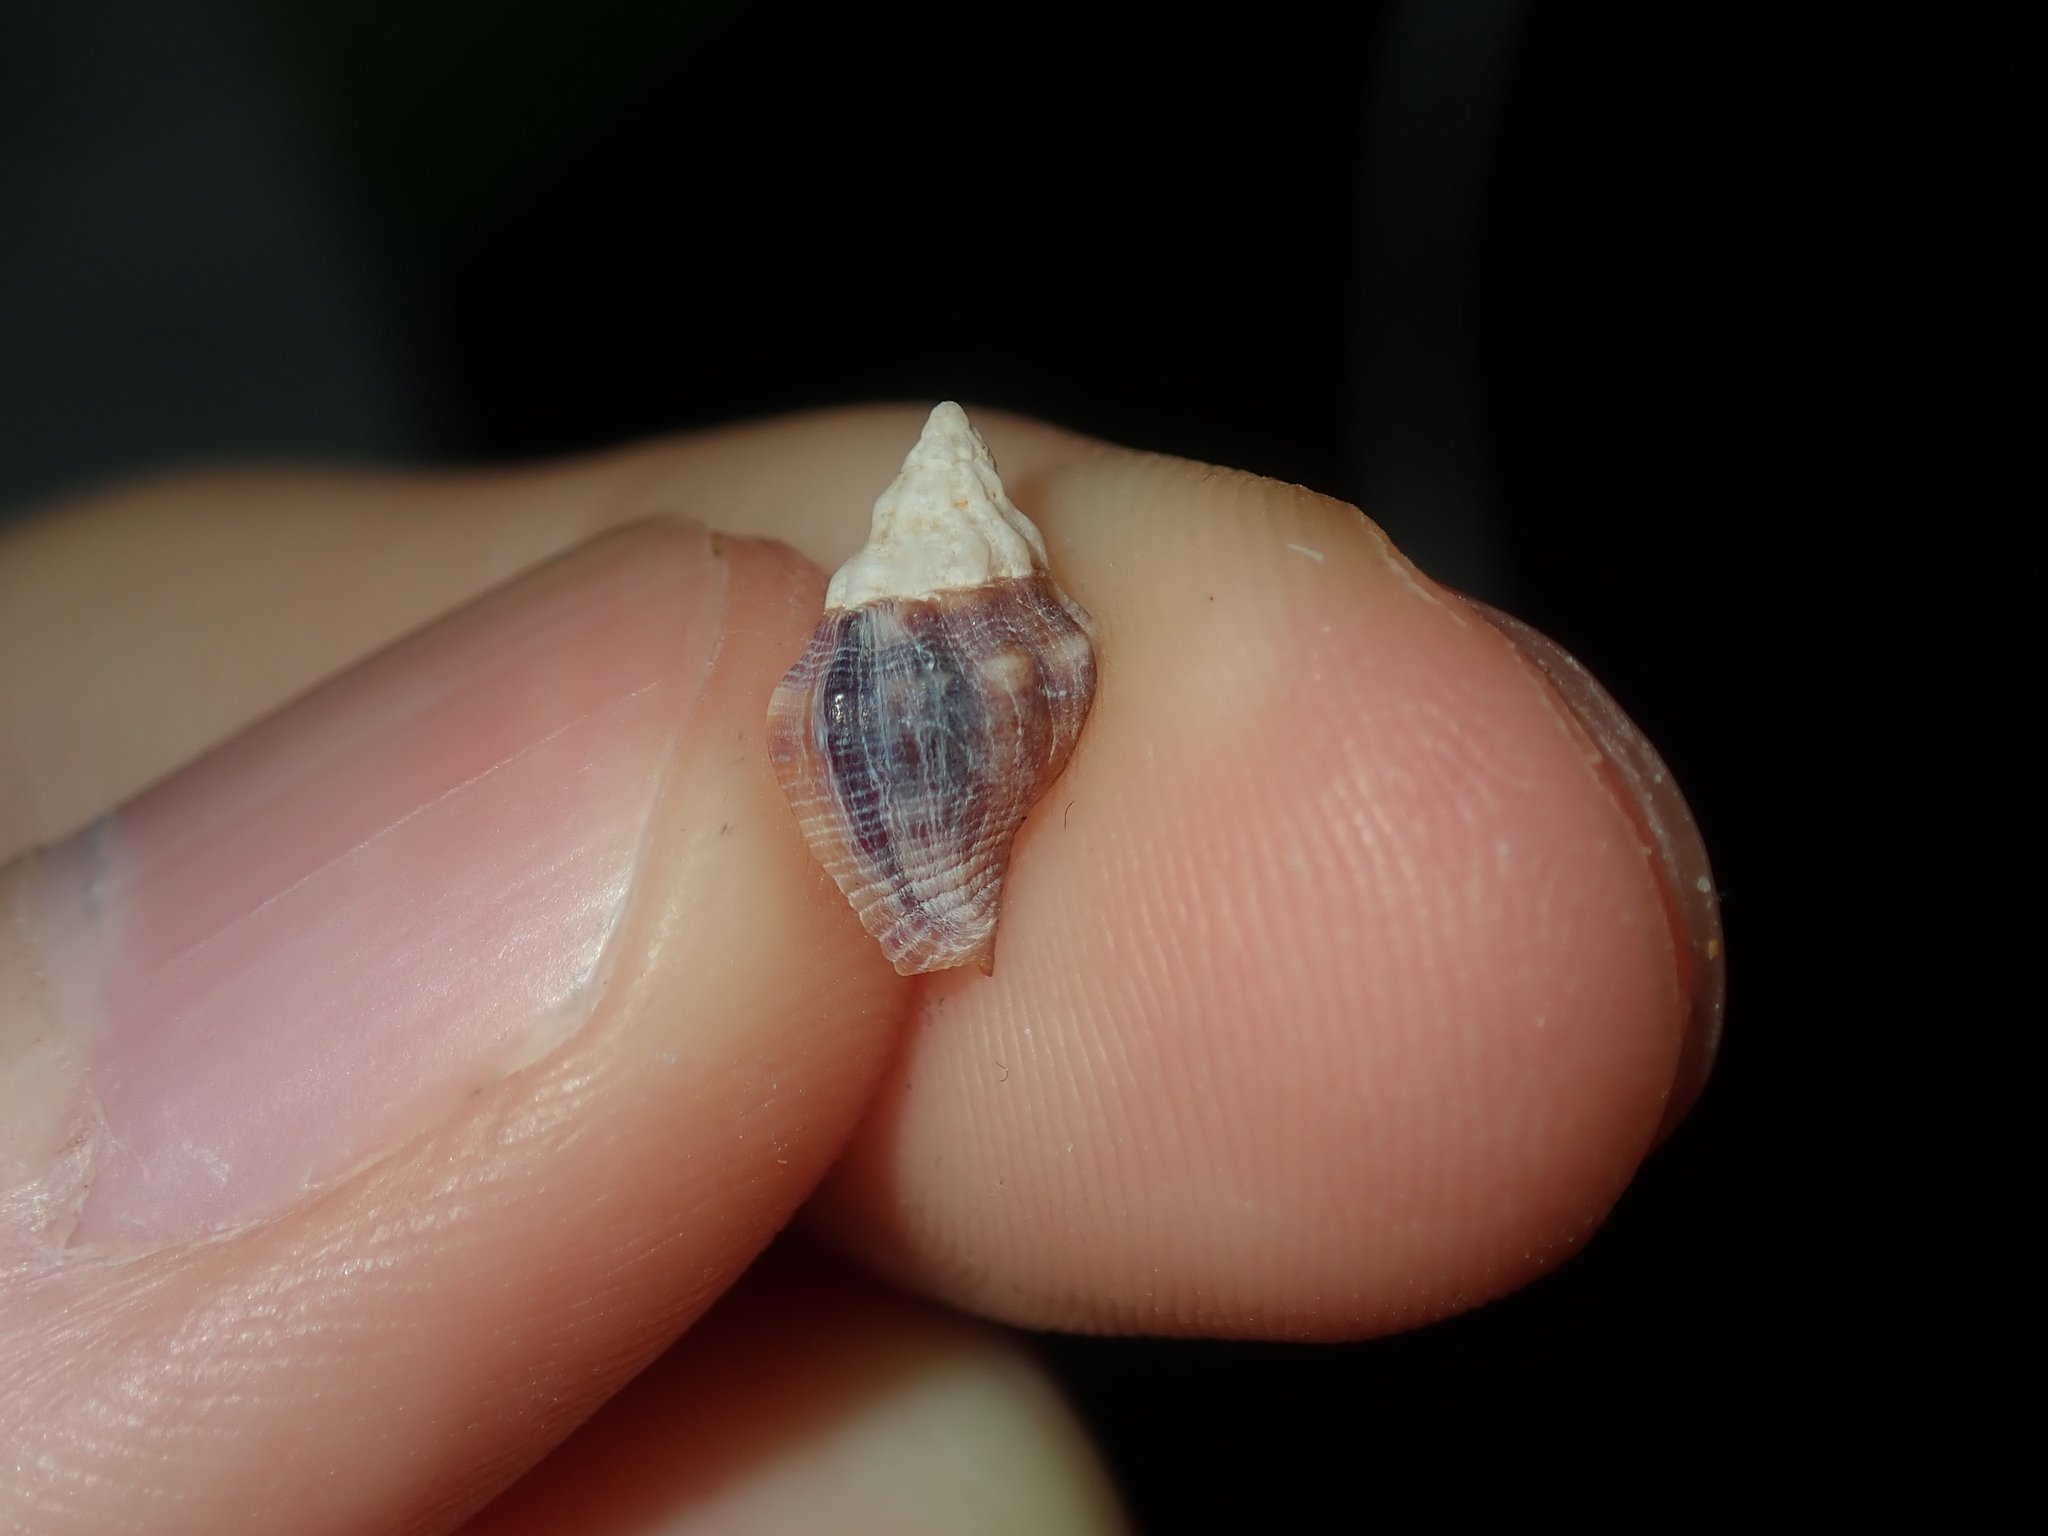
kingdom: Animalia
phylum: Mollusca
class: Gastropoda
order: Neogastropoda
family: Muricidae
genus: Cronia
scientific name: Cronia avellana
